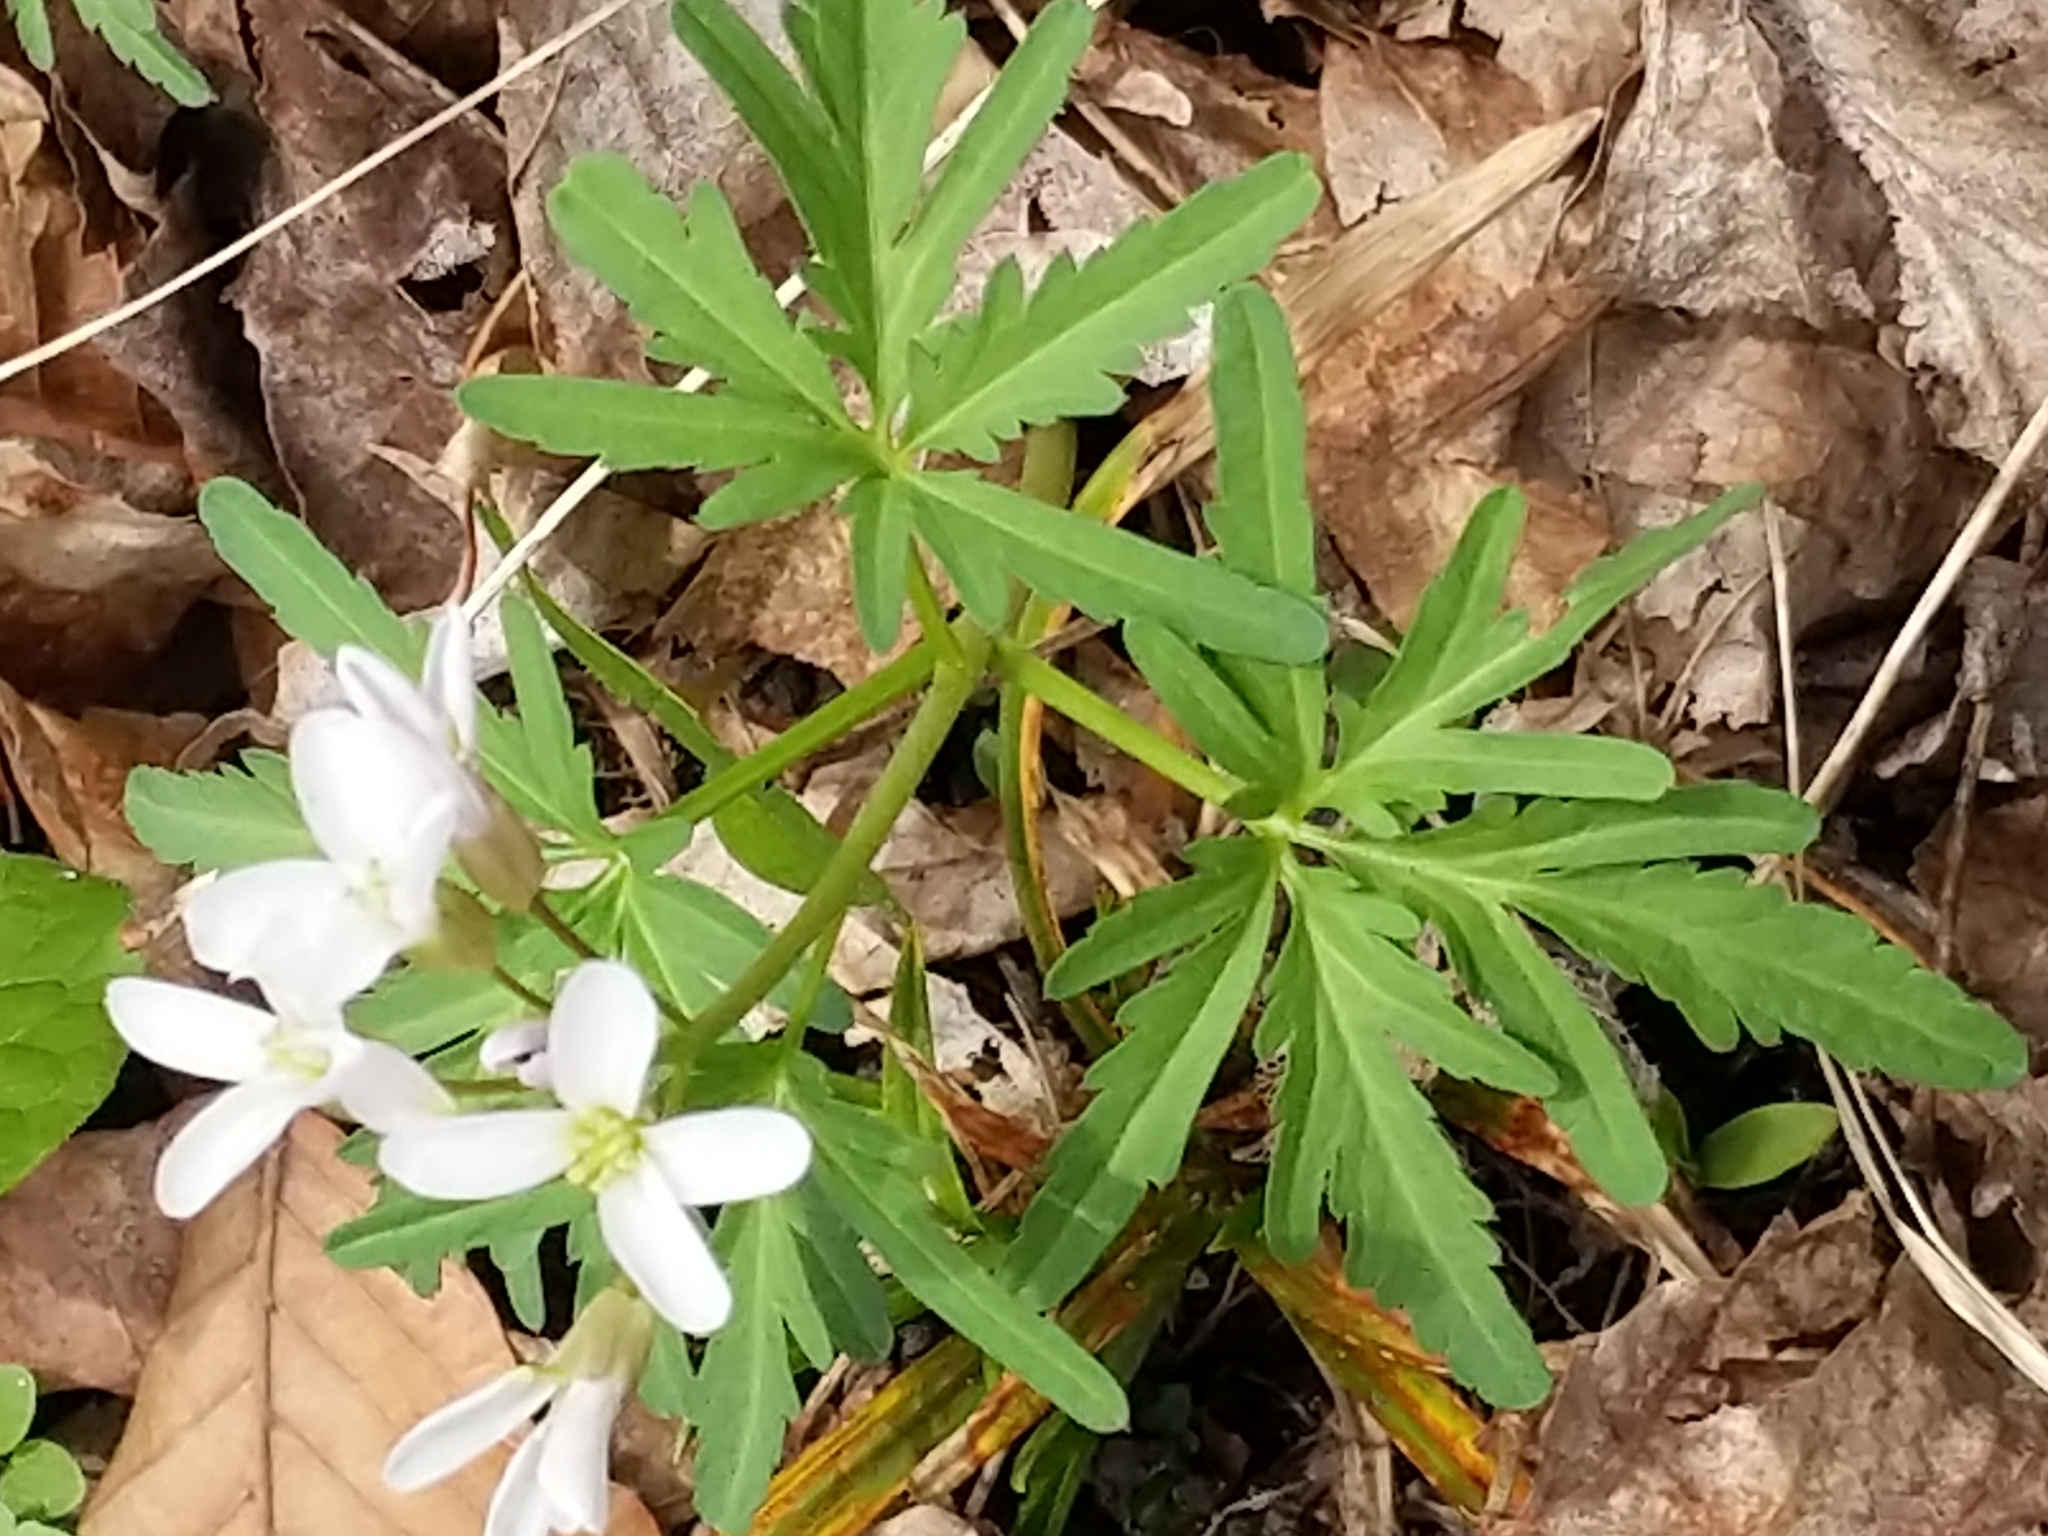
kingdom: Plantae
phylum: Tracheophyta
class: Magnoliopsida
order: Brassicales
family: Brassicaceae
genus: Cardamine
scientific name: Cardamine concatenata
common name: Cut-leaf toothcup
